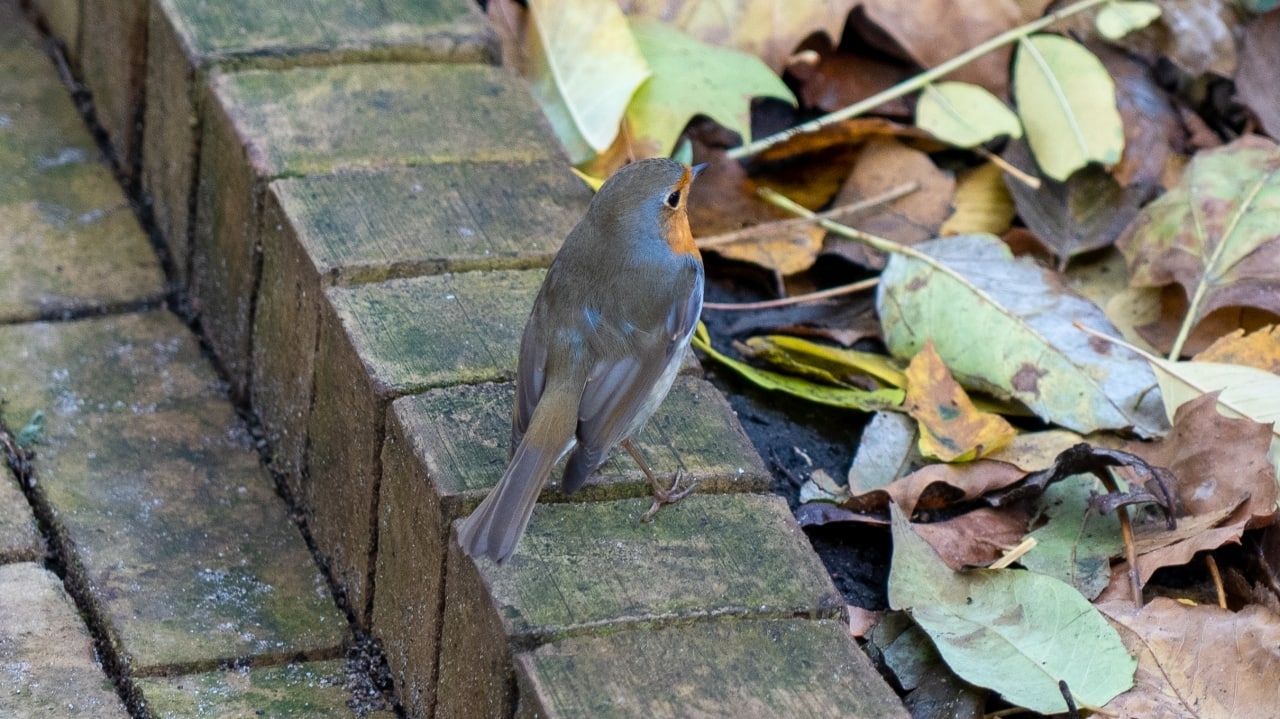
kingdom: Animalia
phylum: Chordata
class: Aves
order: Passeriformes
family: Muscicapidae
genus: Erithacus
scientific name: Erithacus rubecula
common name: European robin
